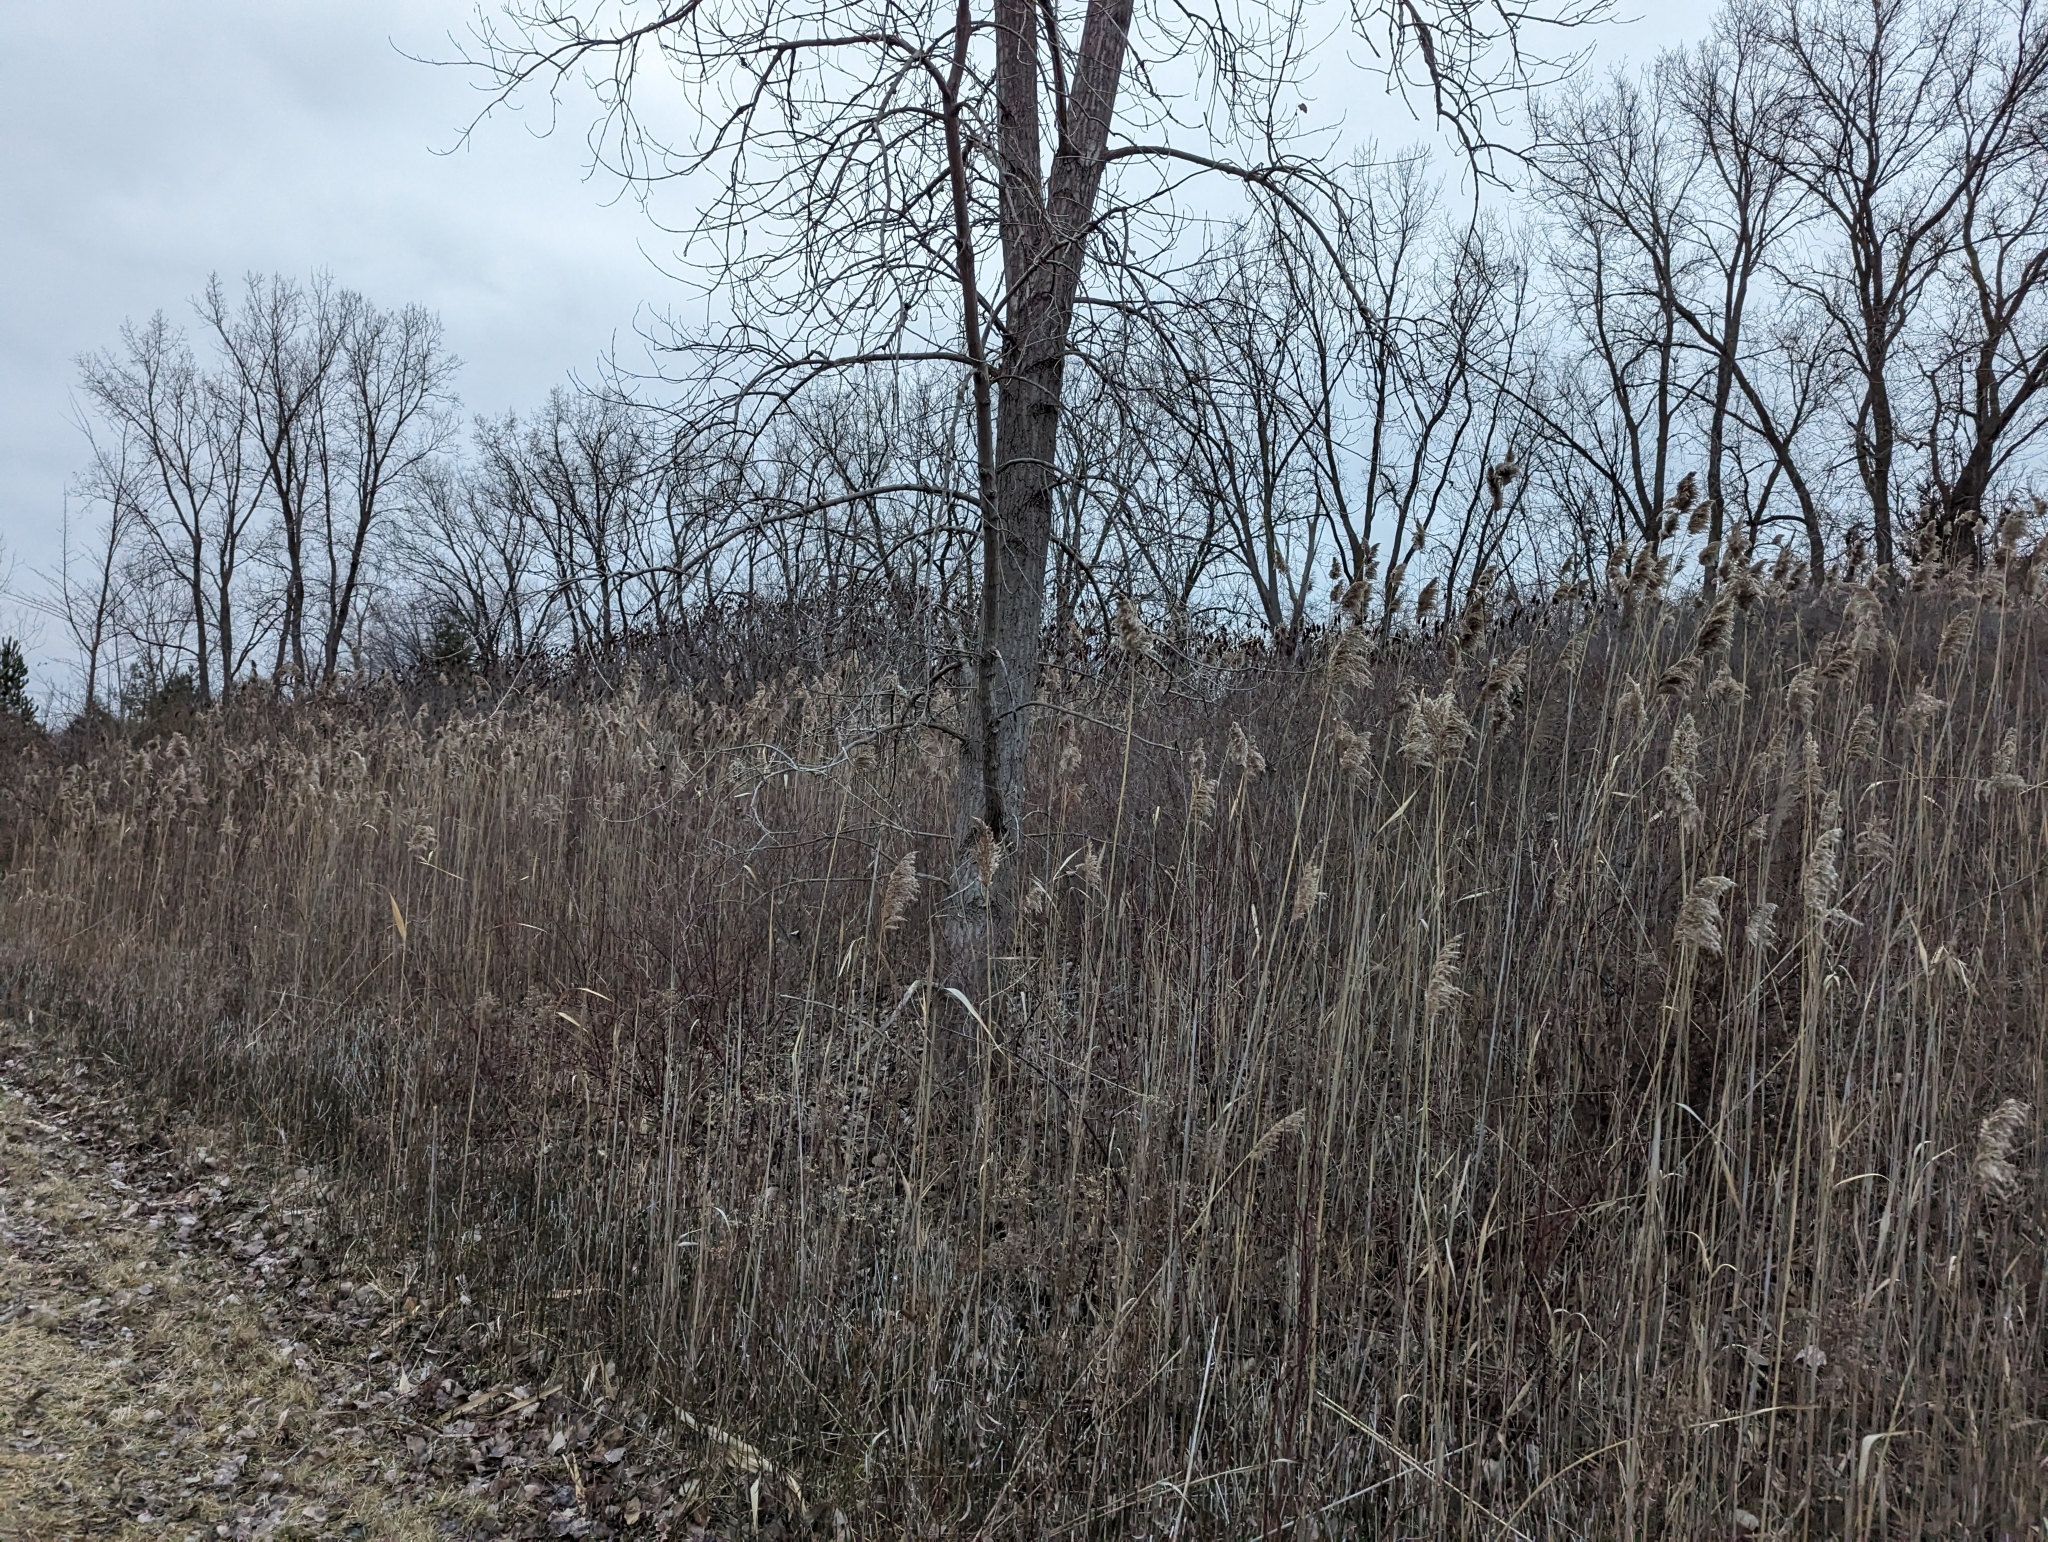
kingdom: Plantae
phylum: Tracheophyta
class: Liliopsida
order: Poales
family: Poaceae
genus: Phragmites
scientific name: Phragmites australis
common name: Common reed
